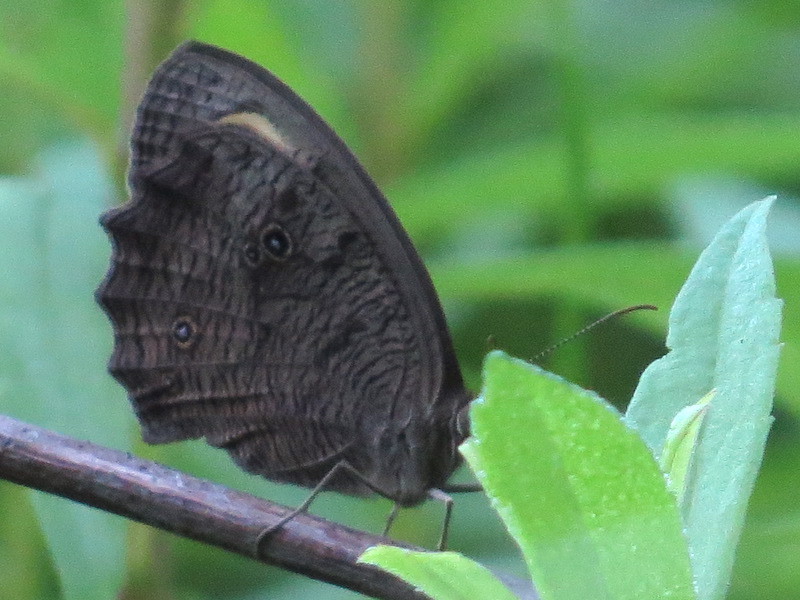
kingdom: Animalia
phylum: Arthropoda
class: Insecta
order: Lepidoptera
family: Nymphalidae
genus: Cercyonis
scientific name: Cercyonis pegala
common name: Common wood-nymph
